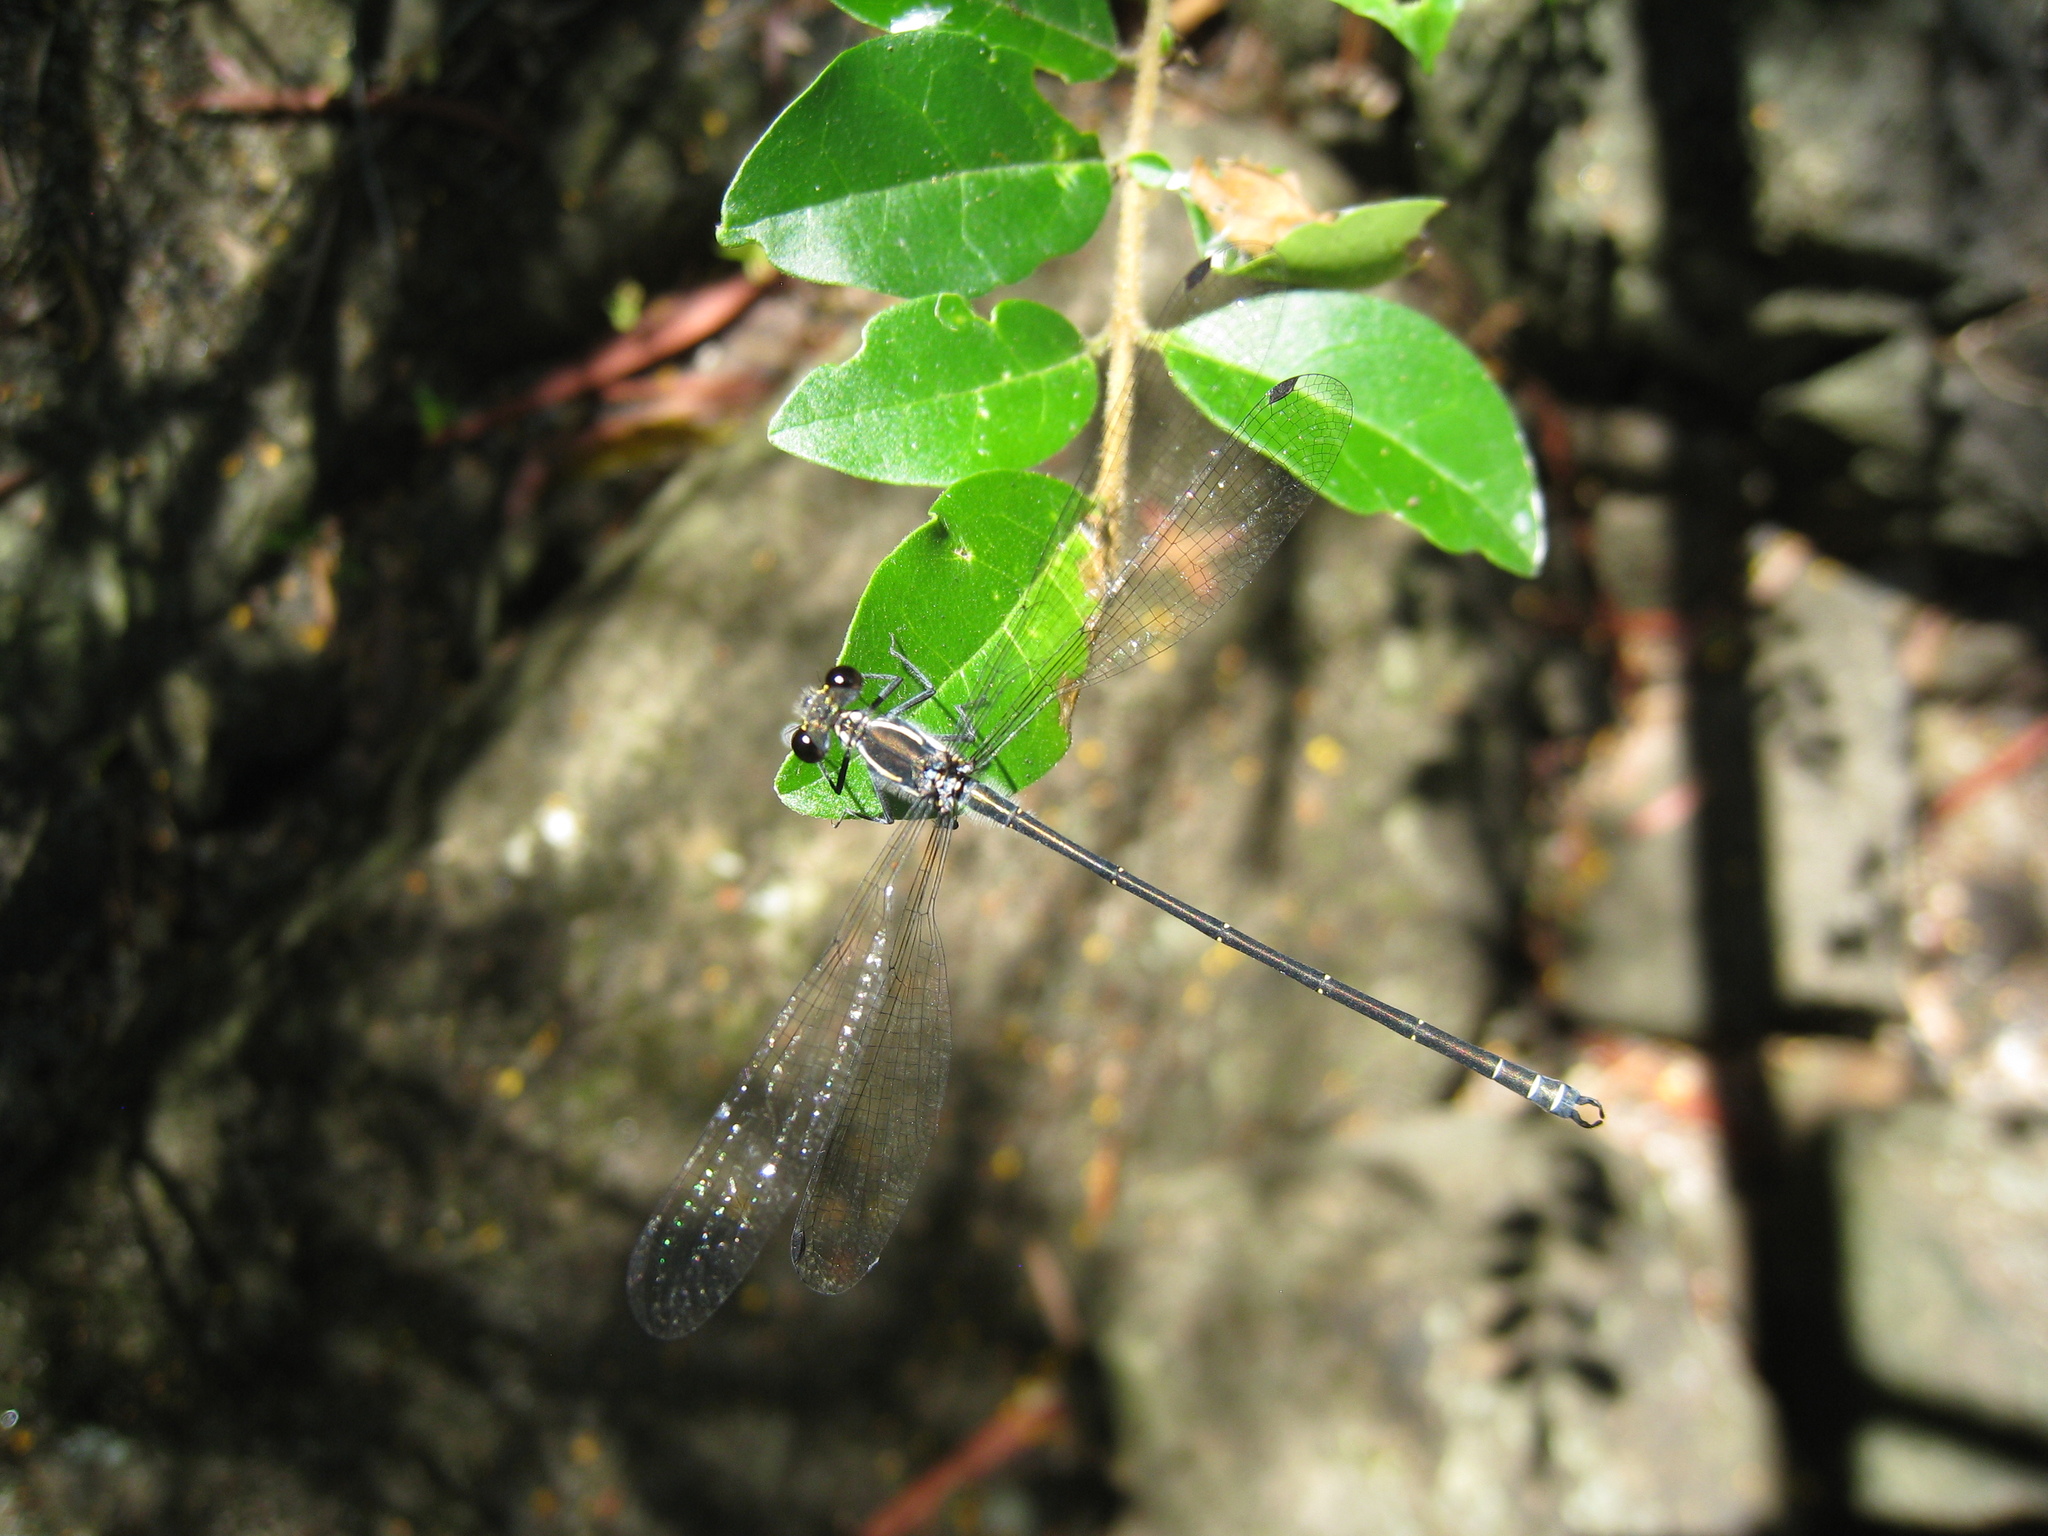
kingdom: Animalia
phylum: Arthropoda
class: Insecta
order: Odonata
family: Argiolestidae
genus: Austroargiolestes
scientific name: Austroargiolestes icteromelas
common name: Common flatwing
